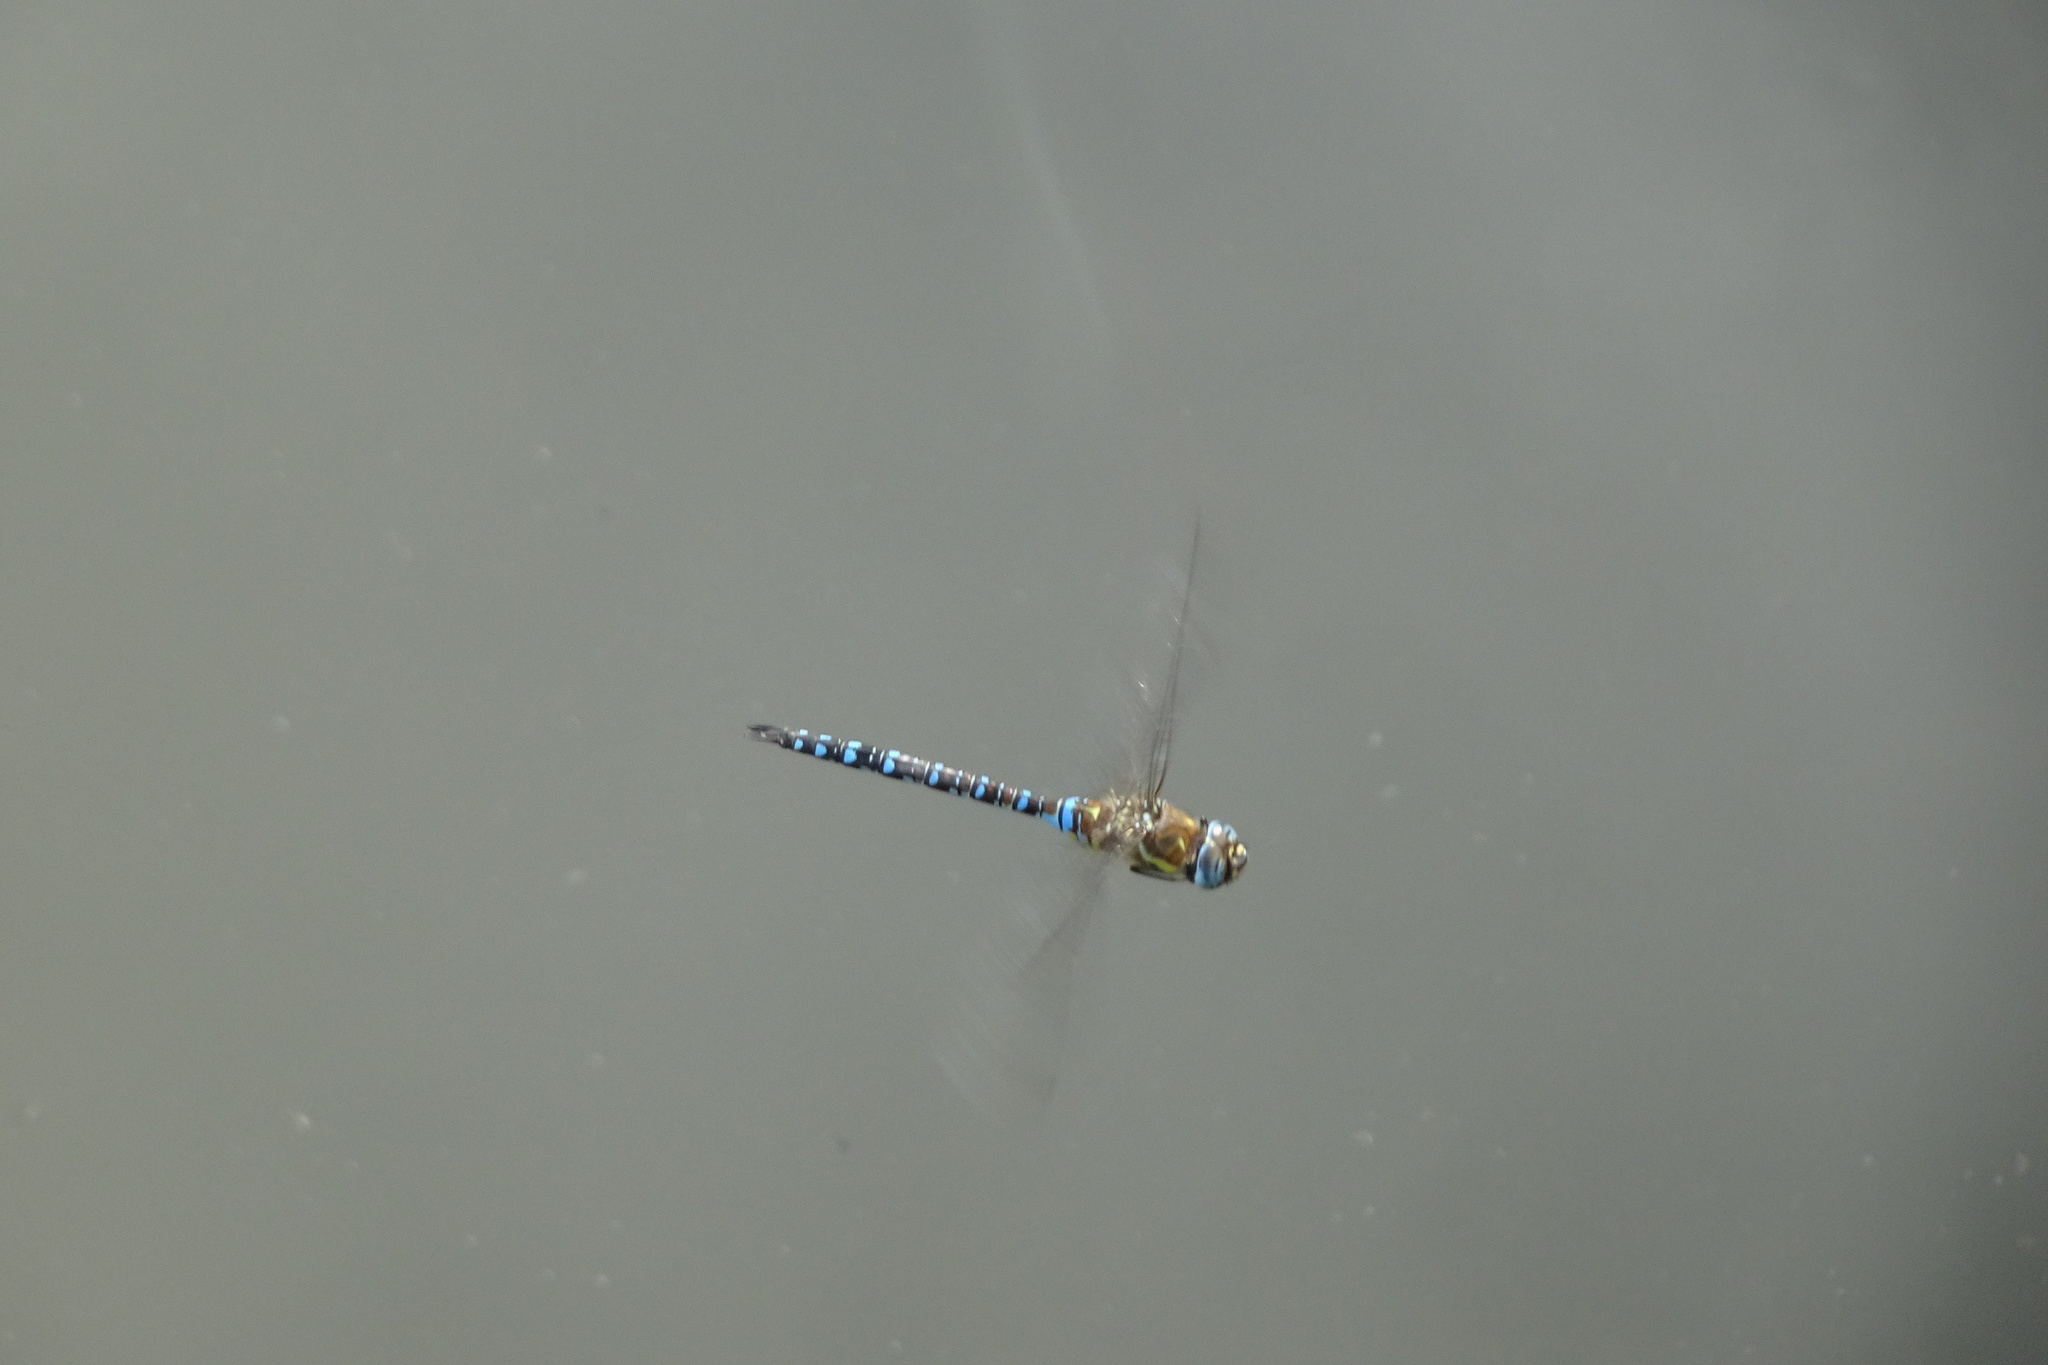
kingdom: Animalia
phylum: Arthropoda
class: Insecta
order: Odonata
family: Aeshnidae
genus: Aeshna
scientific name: Aeshna mixta
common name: Migrant hawker
